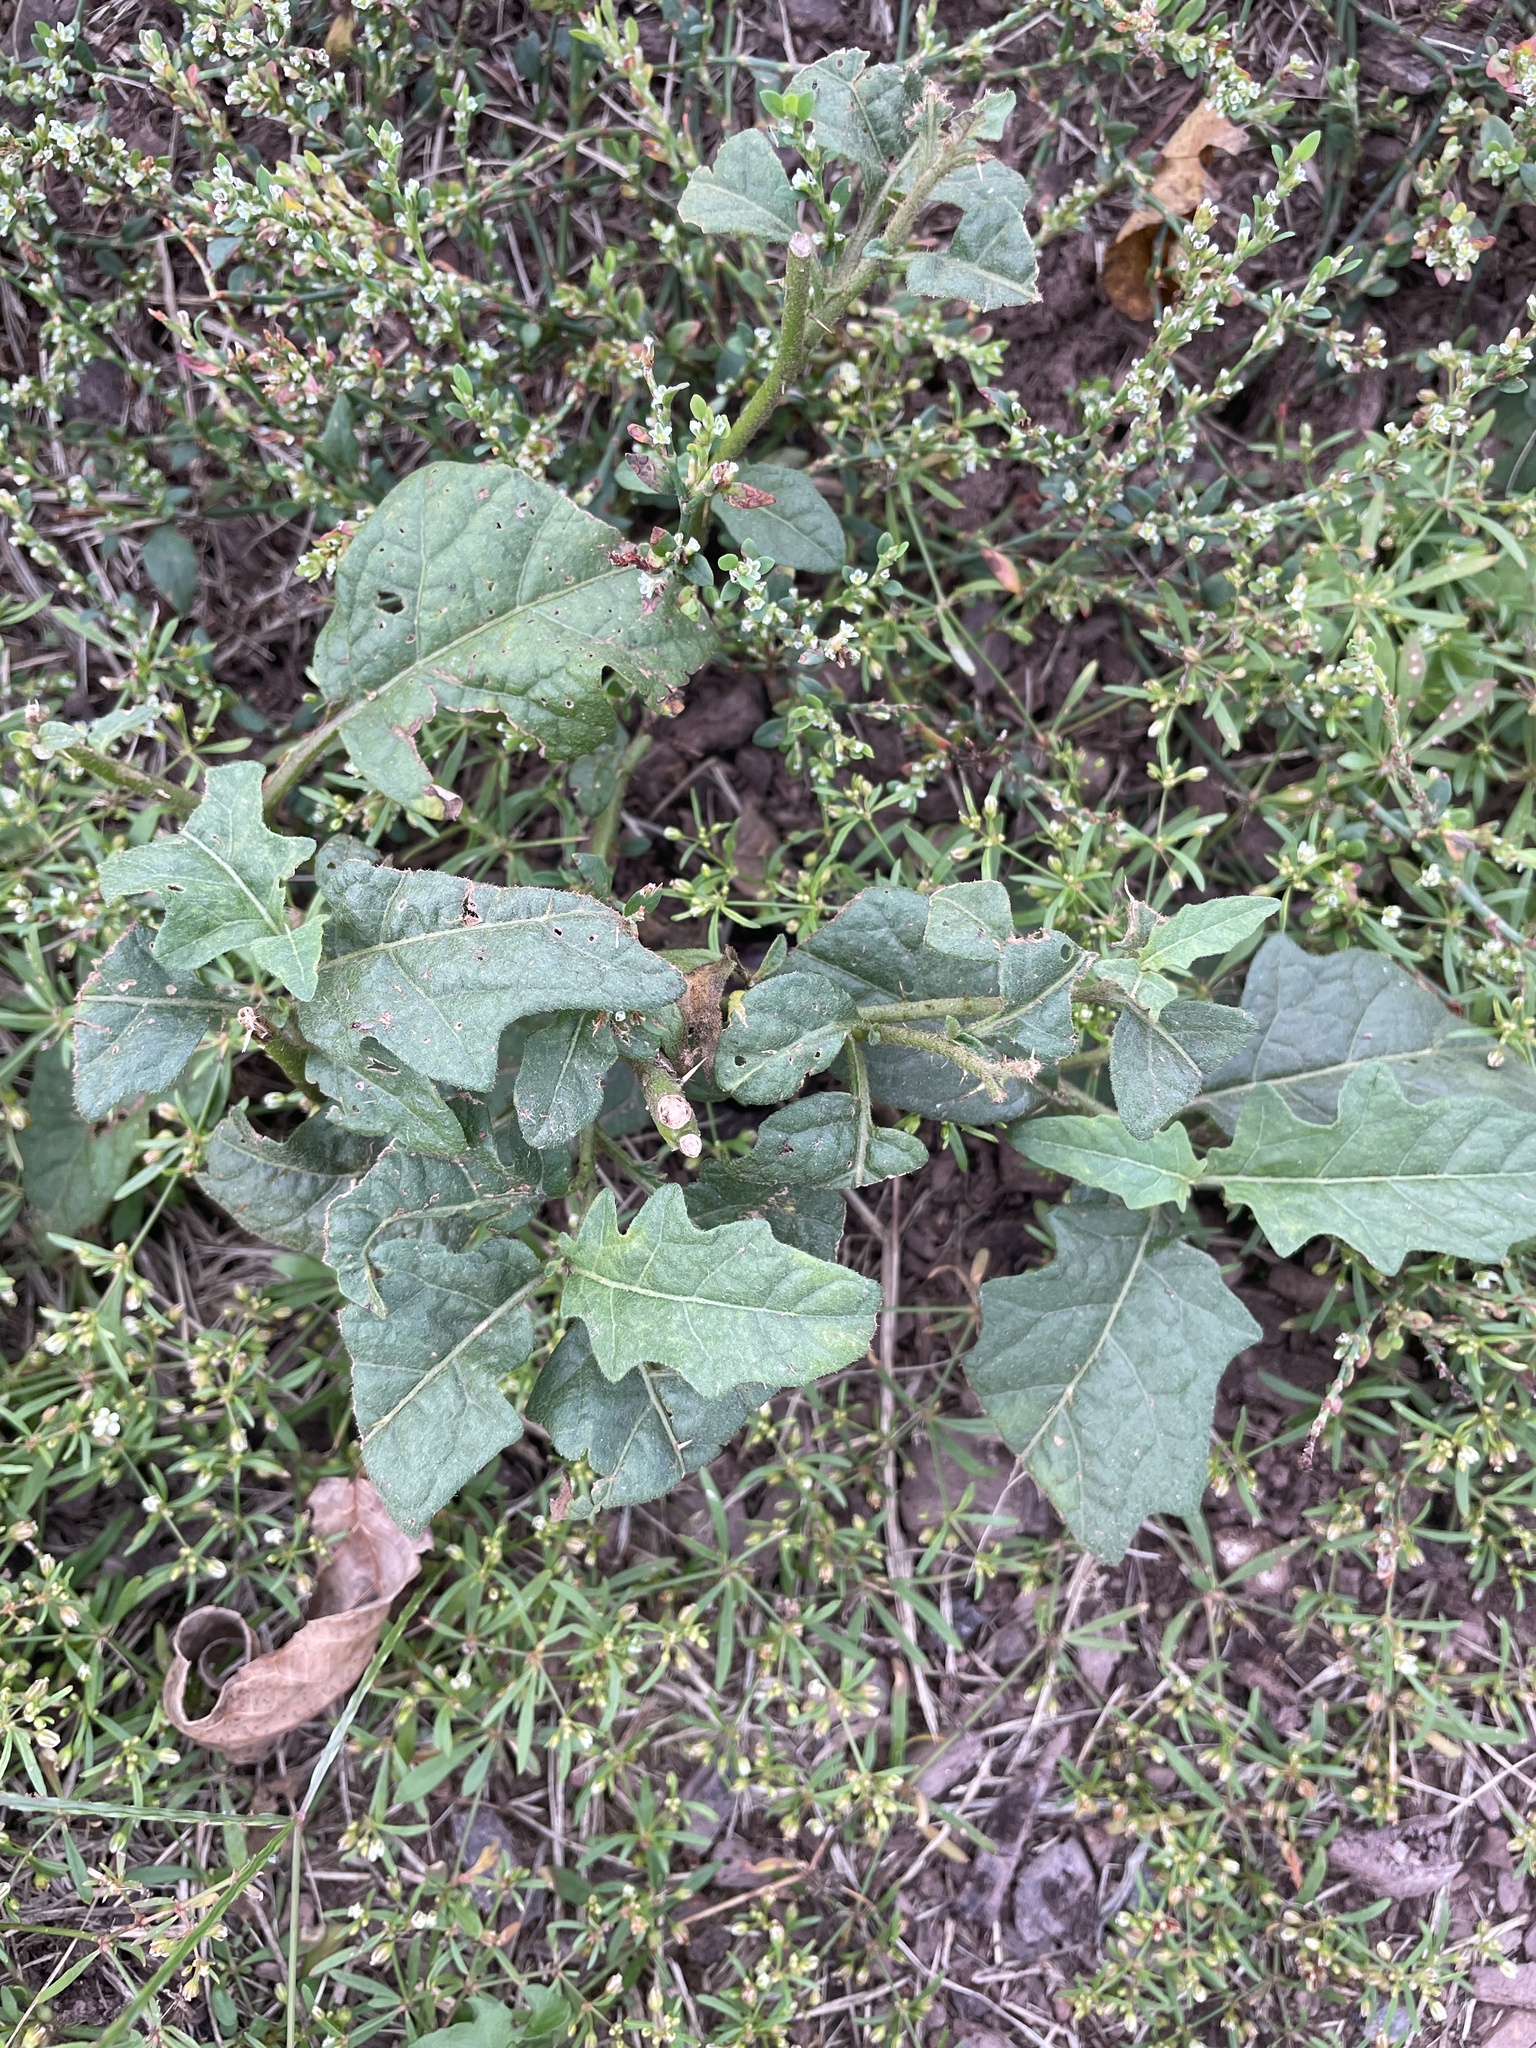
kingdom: Plantae
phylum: Tracheophyta
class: Magnoliopsida
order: Solanales
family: Solanaceae
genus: Solanum
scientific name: Solanum carolinense
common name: Horse-nettle
